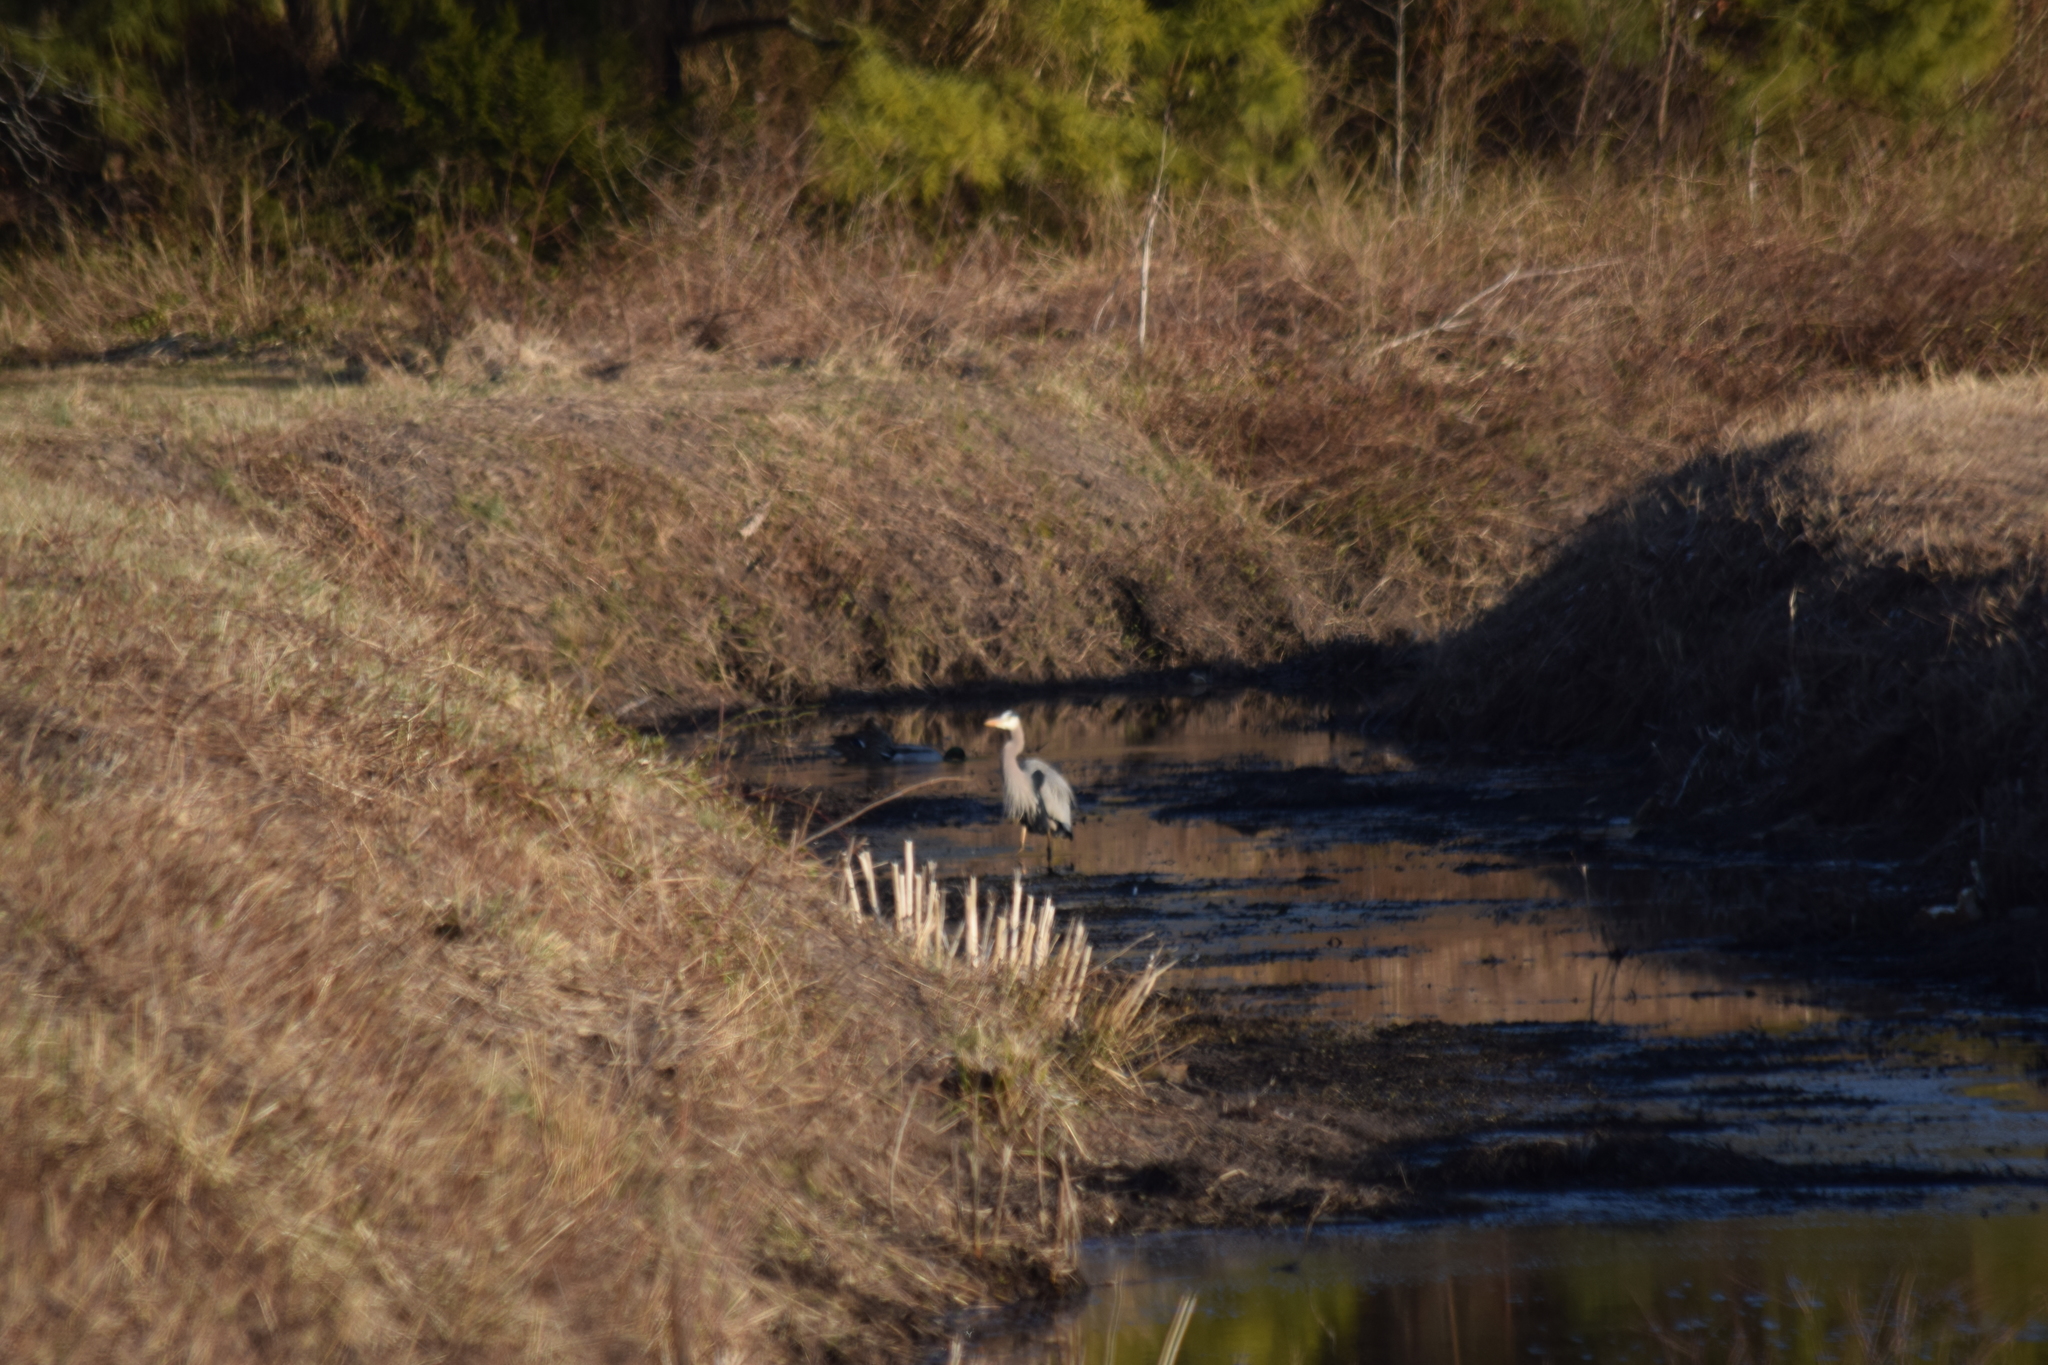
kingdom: Animalia
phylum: Chordata
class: Aves
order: Pelecaniformes
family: Ardeidae
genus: Ardea
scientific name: Ardea herodias
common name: Great blue heron
